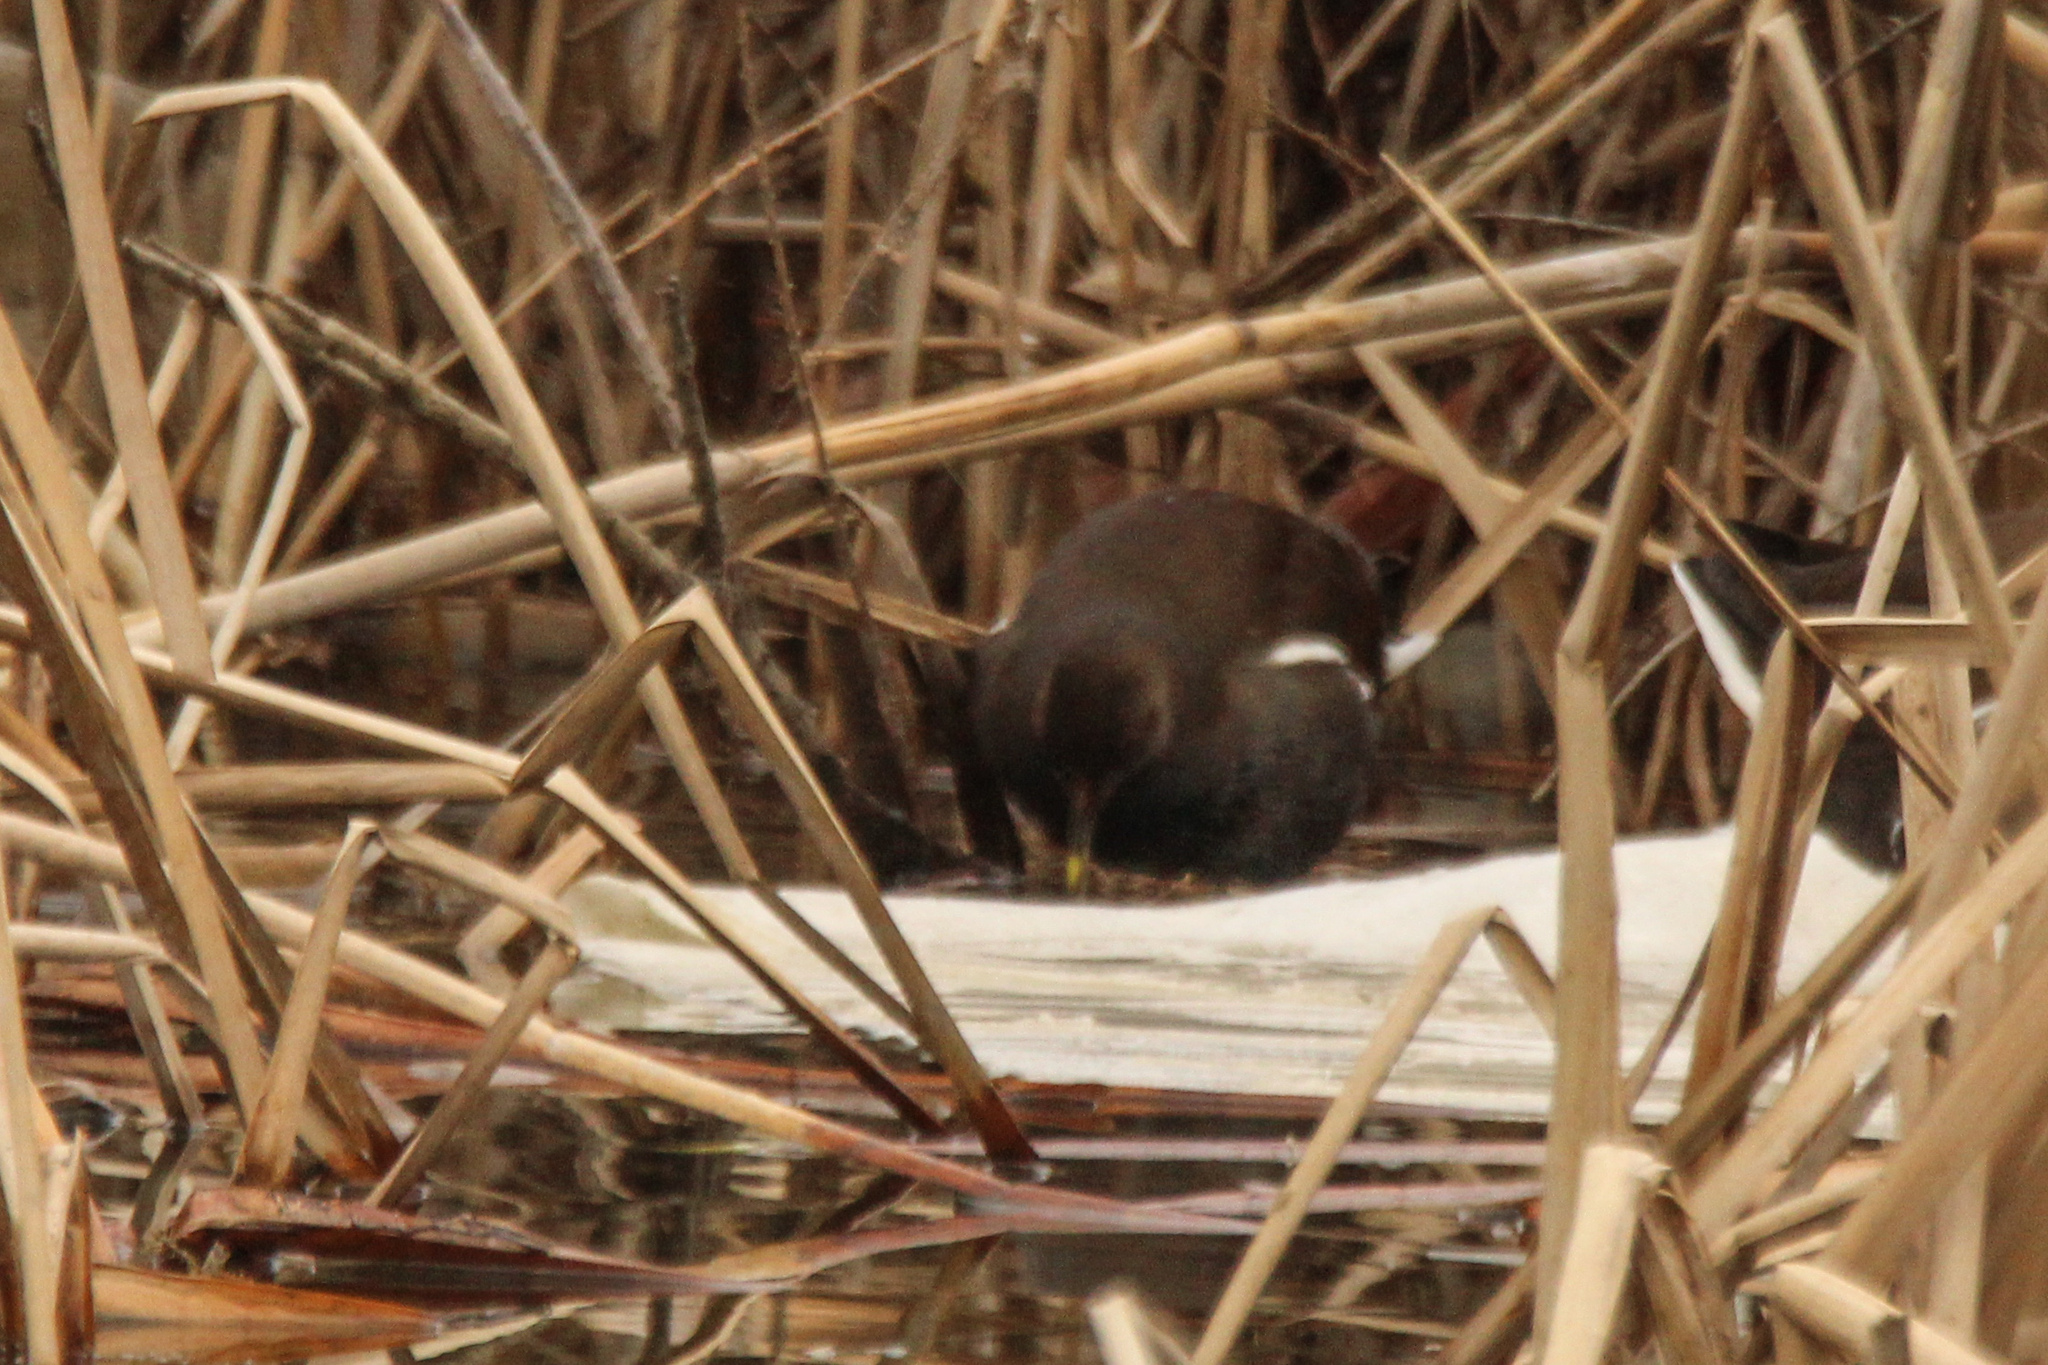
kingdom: Animalia
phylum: Chordata
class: Aves
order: Gruiformes
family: Rallidae
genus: Gallinula
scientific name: Gallinula chloropus
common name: Common moorhen
